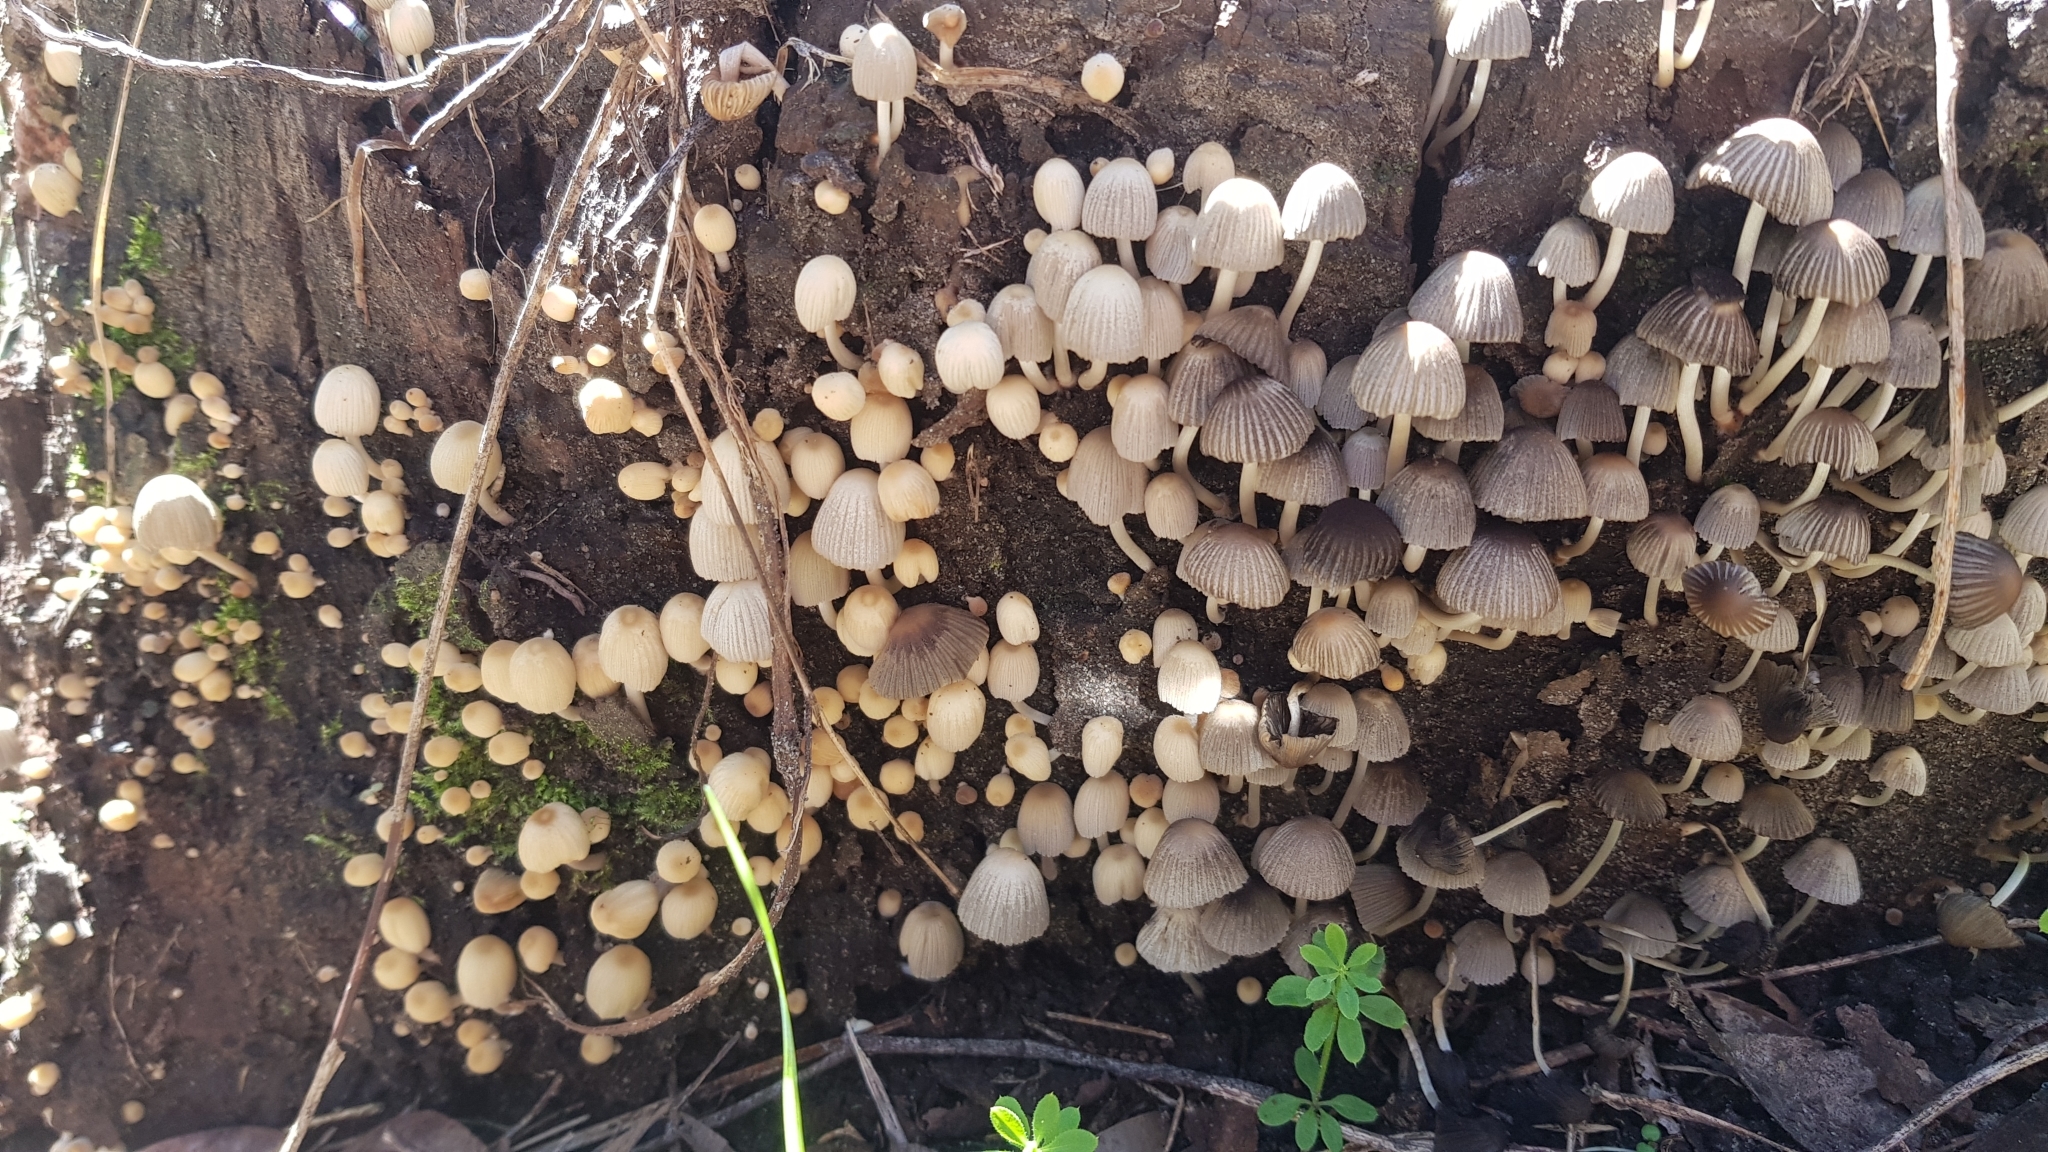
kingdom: Fungi
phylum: Basidiomycota
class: Agaricomycetes
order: Agaricales
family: Psathyrellaceae
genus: Coprinellus
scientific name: Coprinellus disseminatus
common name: Fairies' bonnets
